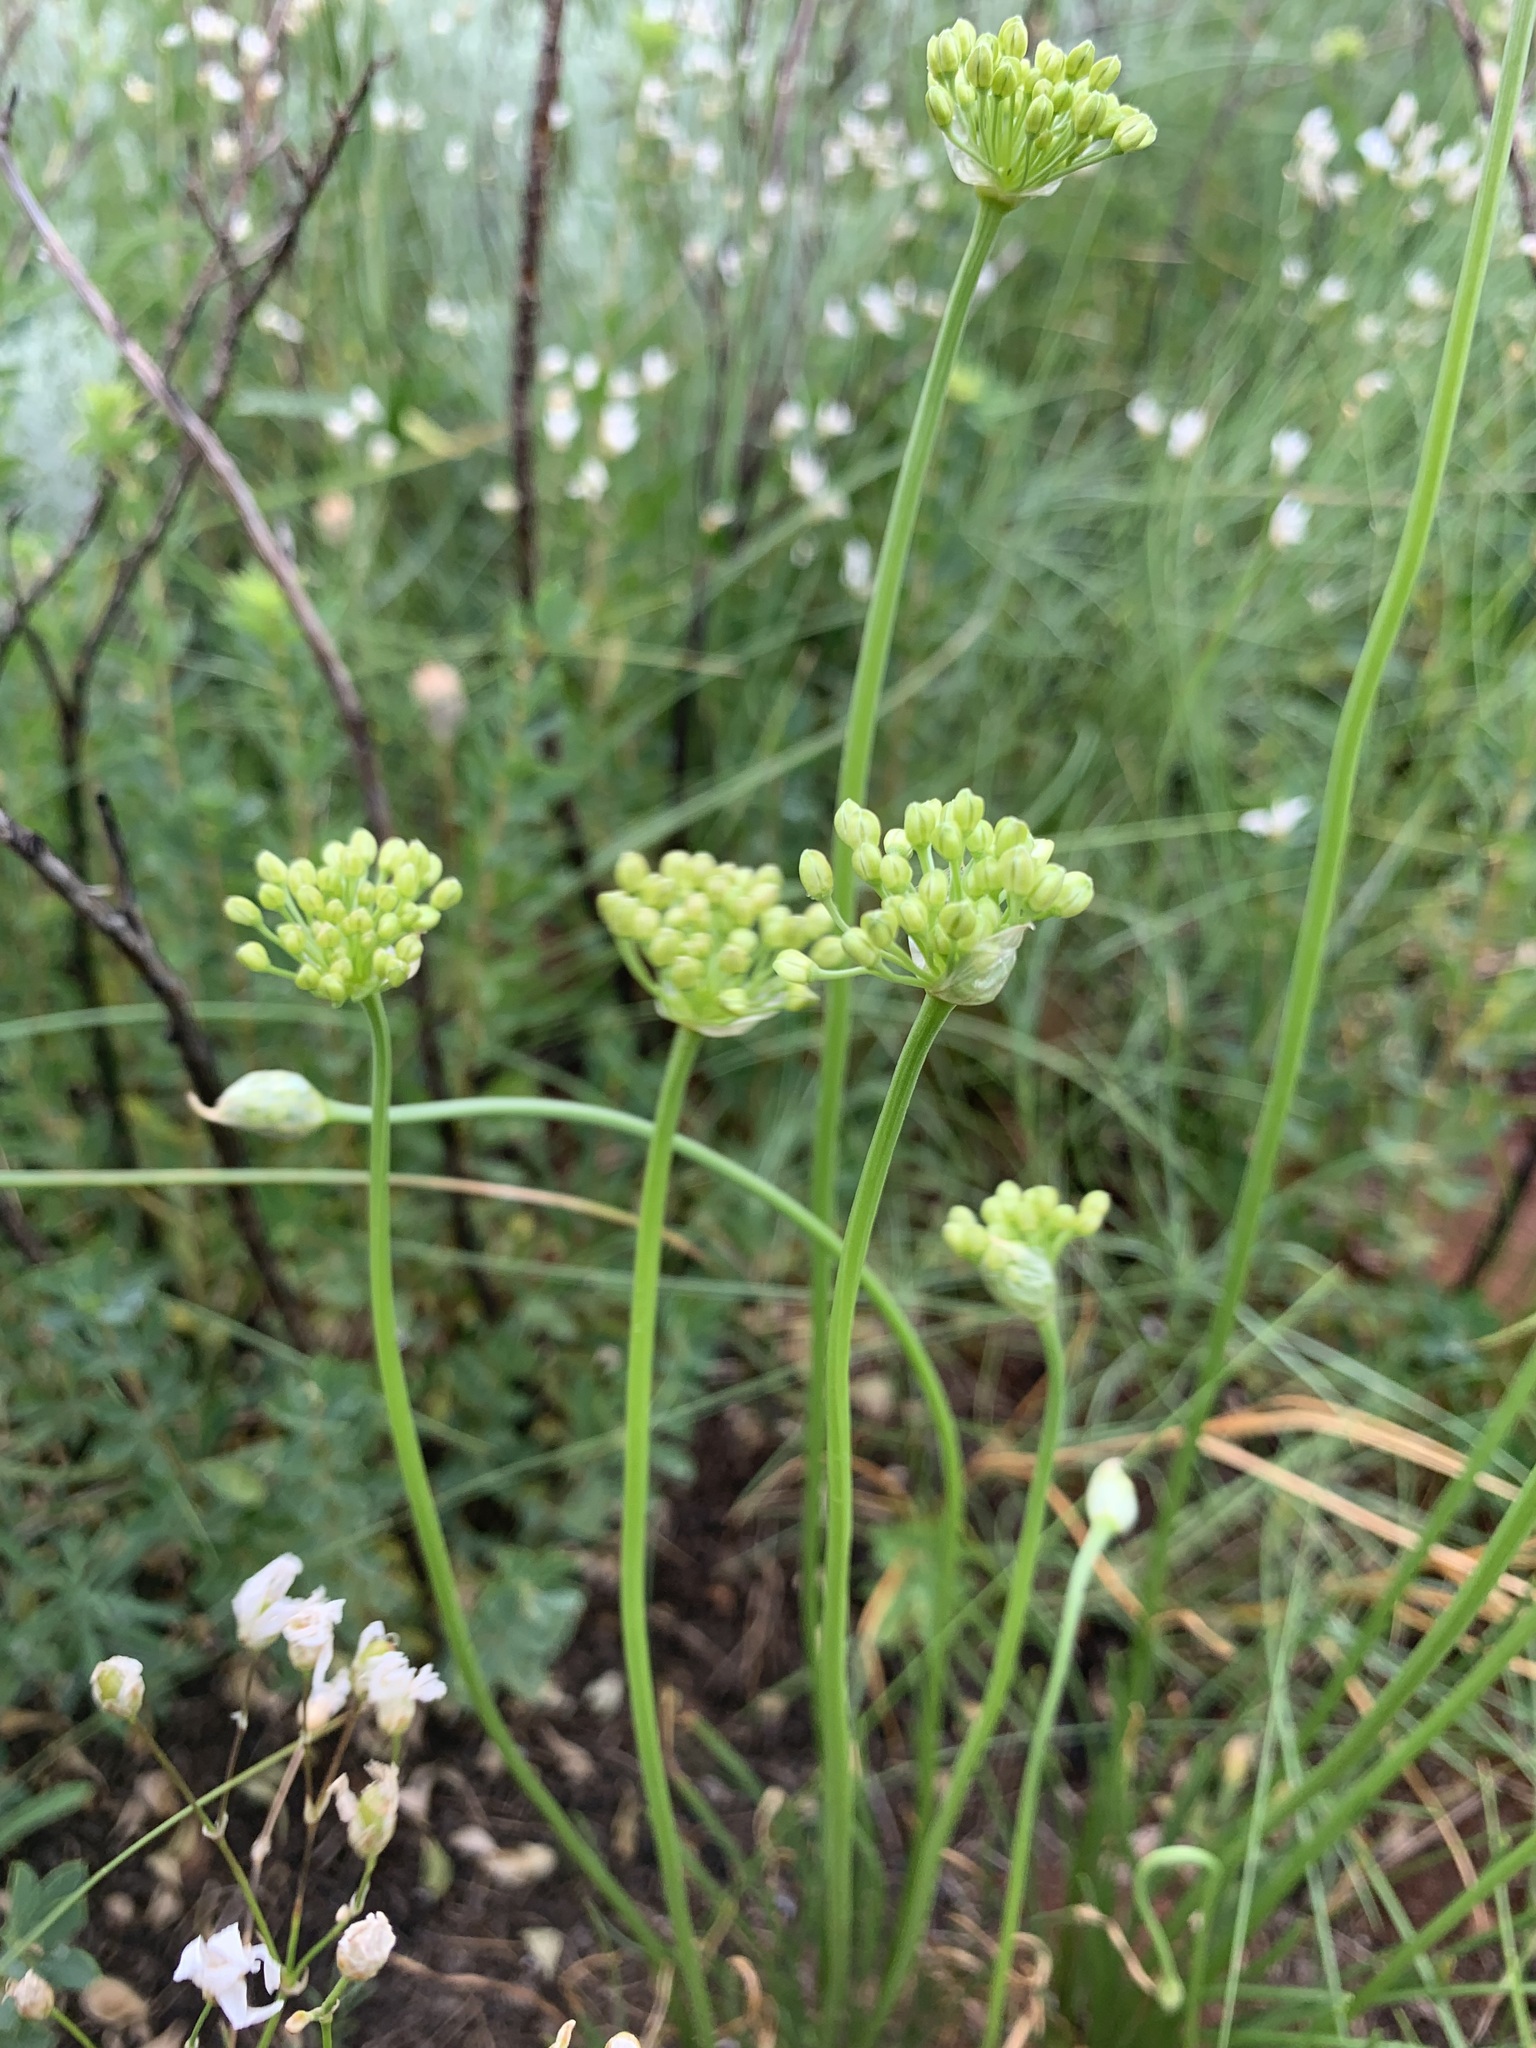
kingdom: Plantae
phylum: Tracheophyta
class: Liliopsida
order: Asparagales
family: Amaryllidaceae
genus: Allium
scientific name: Allium flavescens
